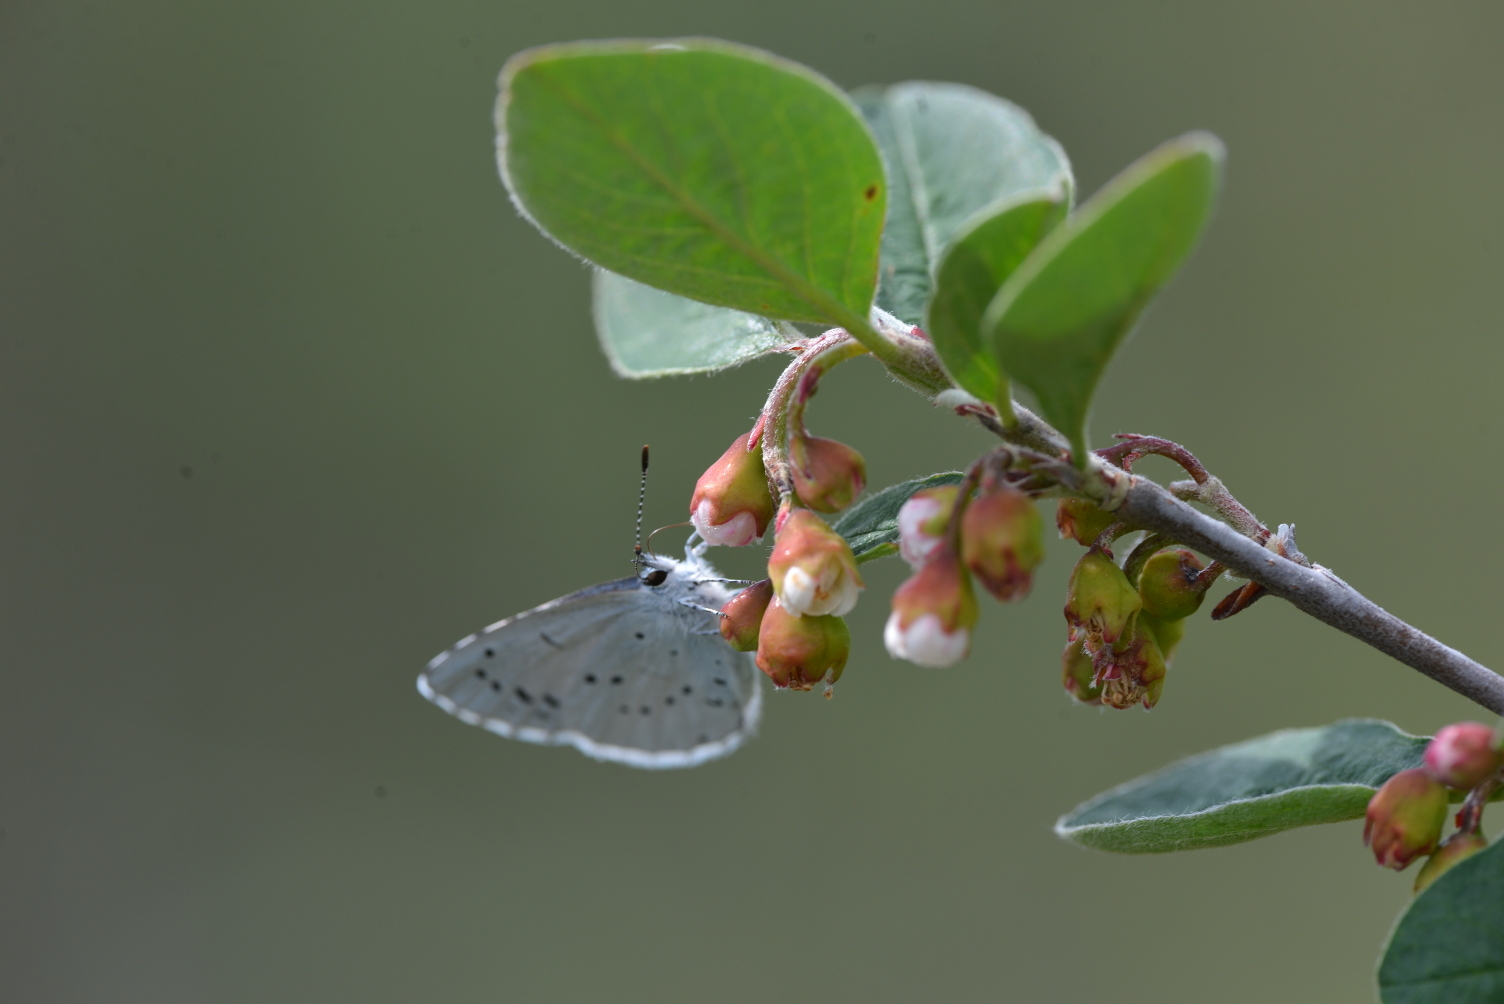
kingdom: Animalia
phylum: Arthropoda
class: Insecta
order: Lepidoptera
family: Lycaenidae
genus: Celastrina
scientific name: Celastrina argiolus
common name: Holly blue
